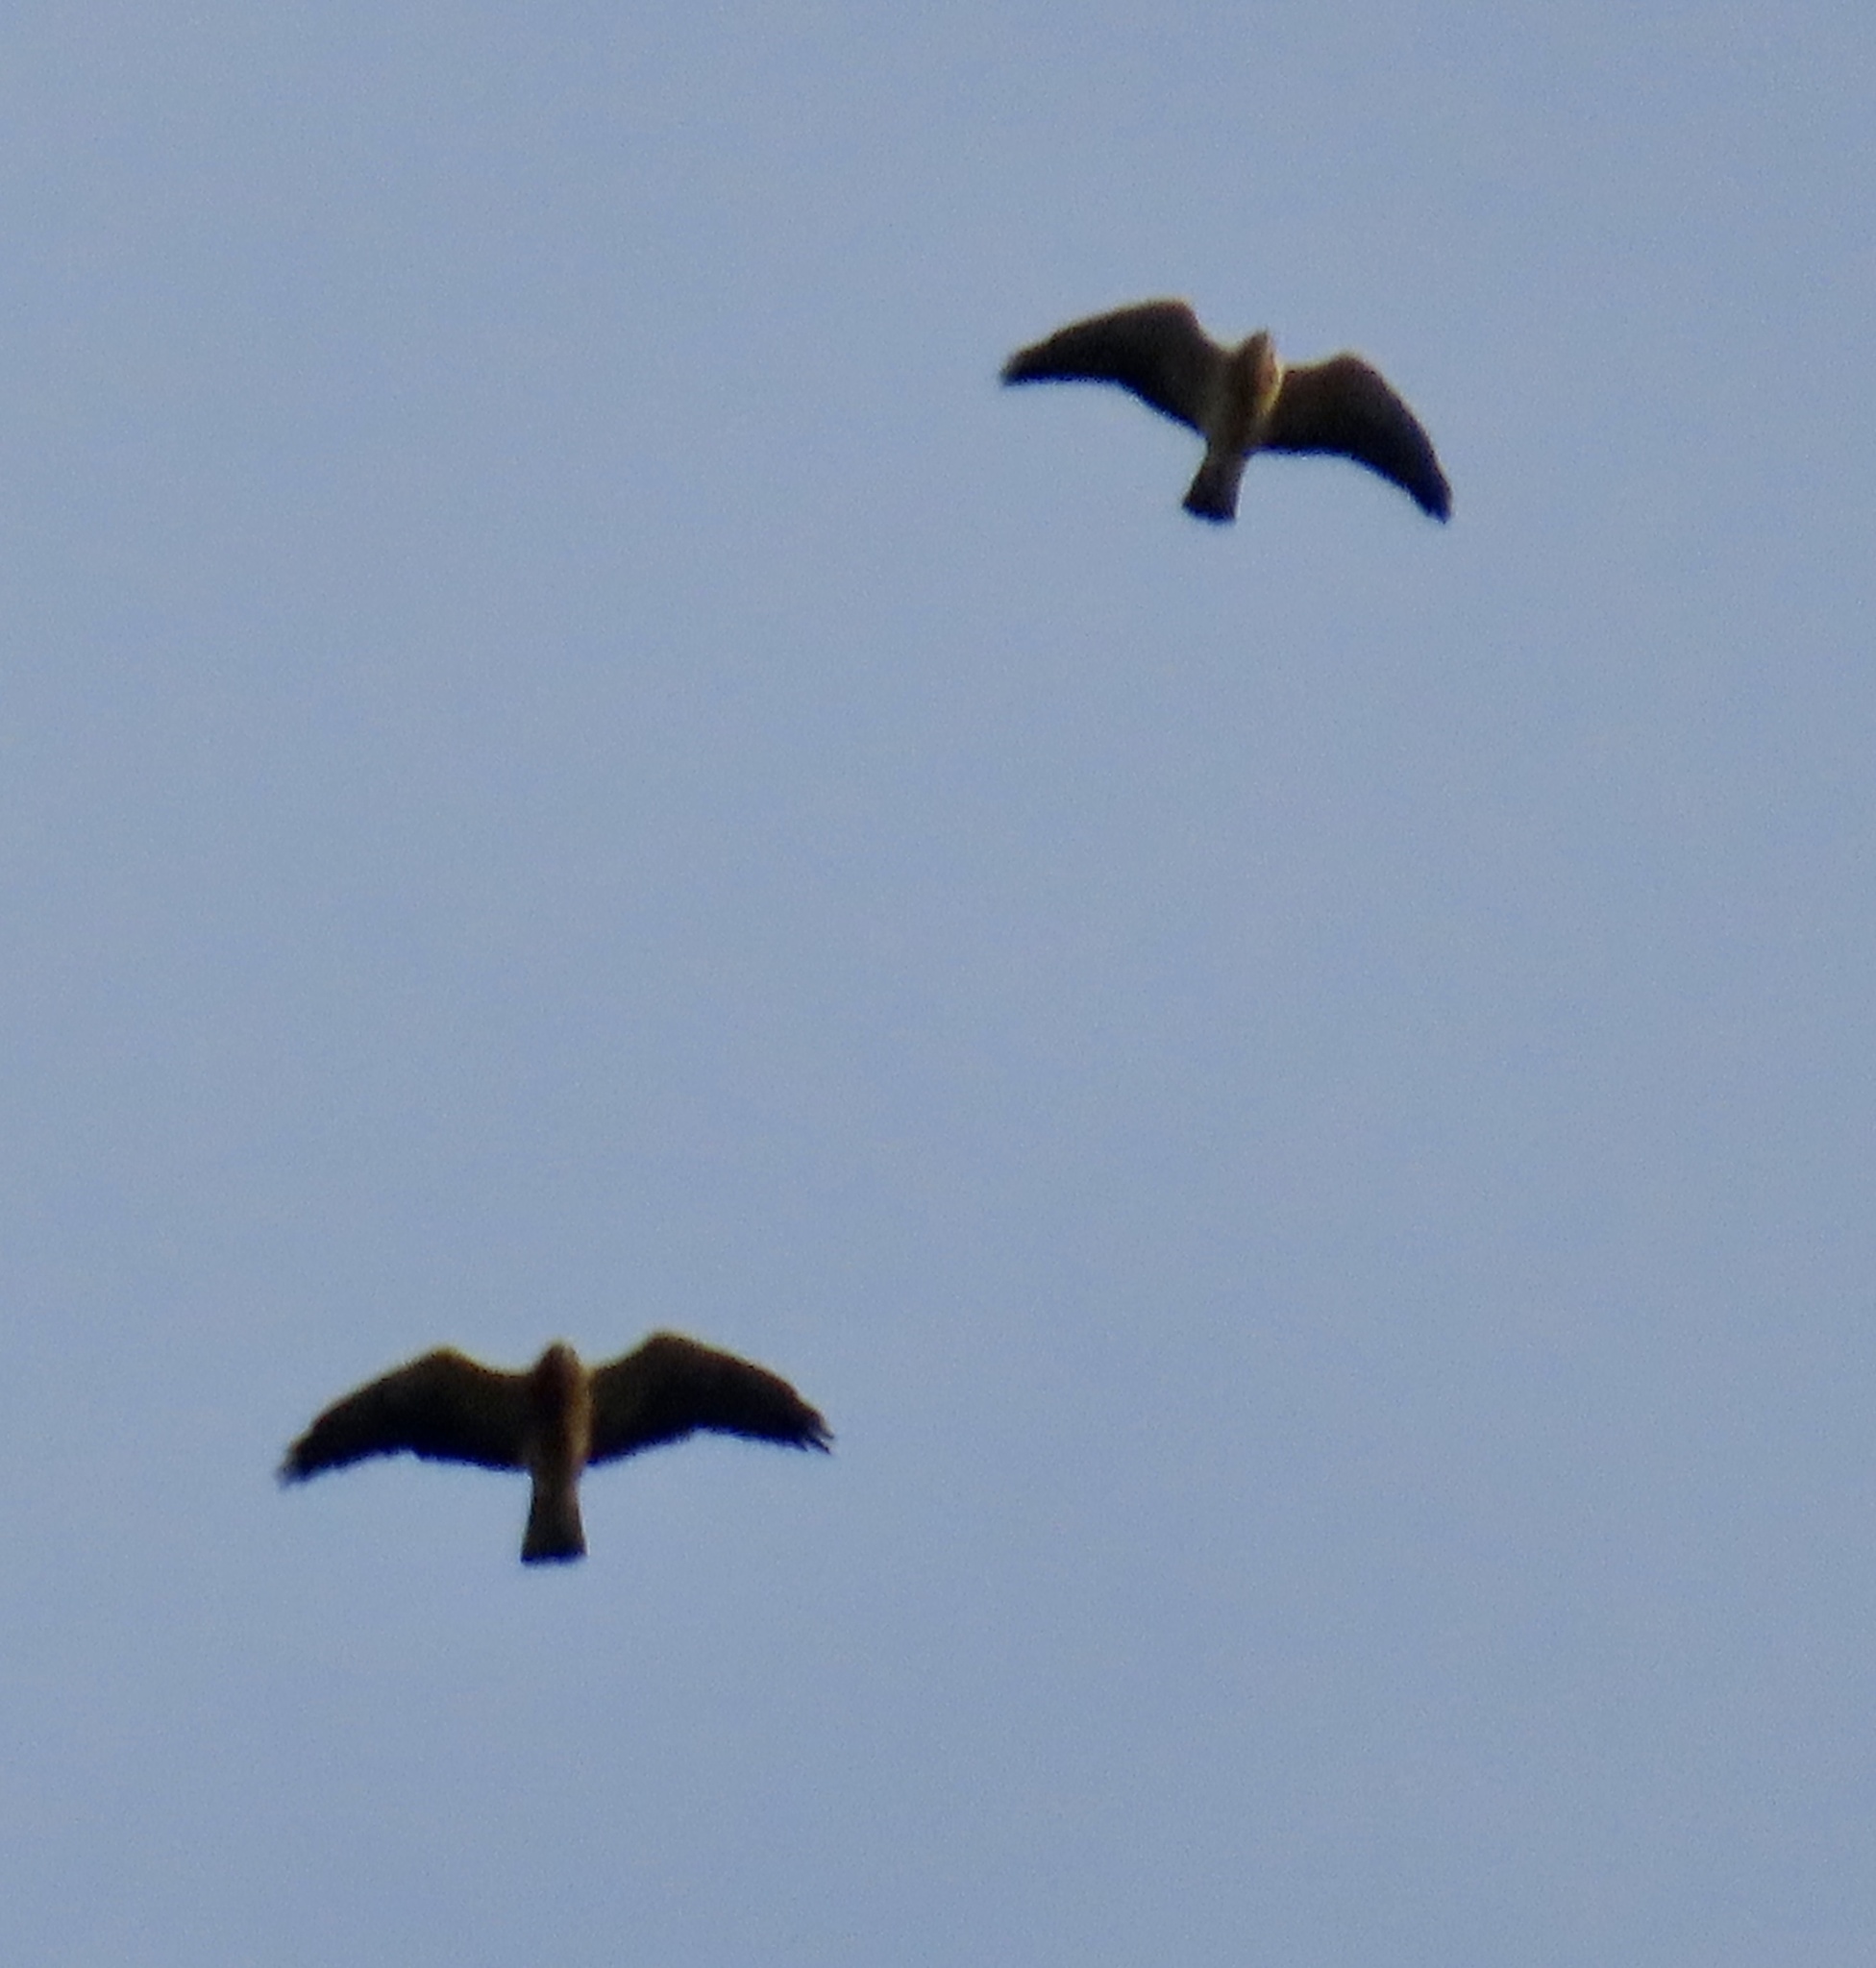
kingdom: Animalia
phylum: Chordata
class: Aves
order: Accipitriformes
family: Accipitridae
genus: Buteo
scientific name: Buteo swainsoni
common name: Swainson's hawk
